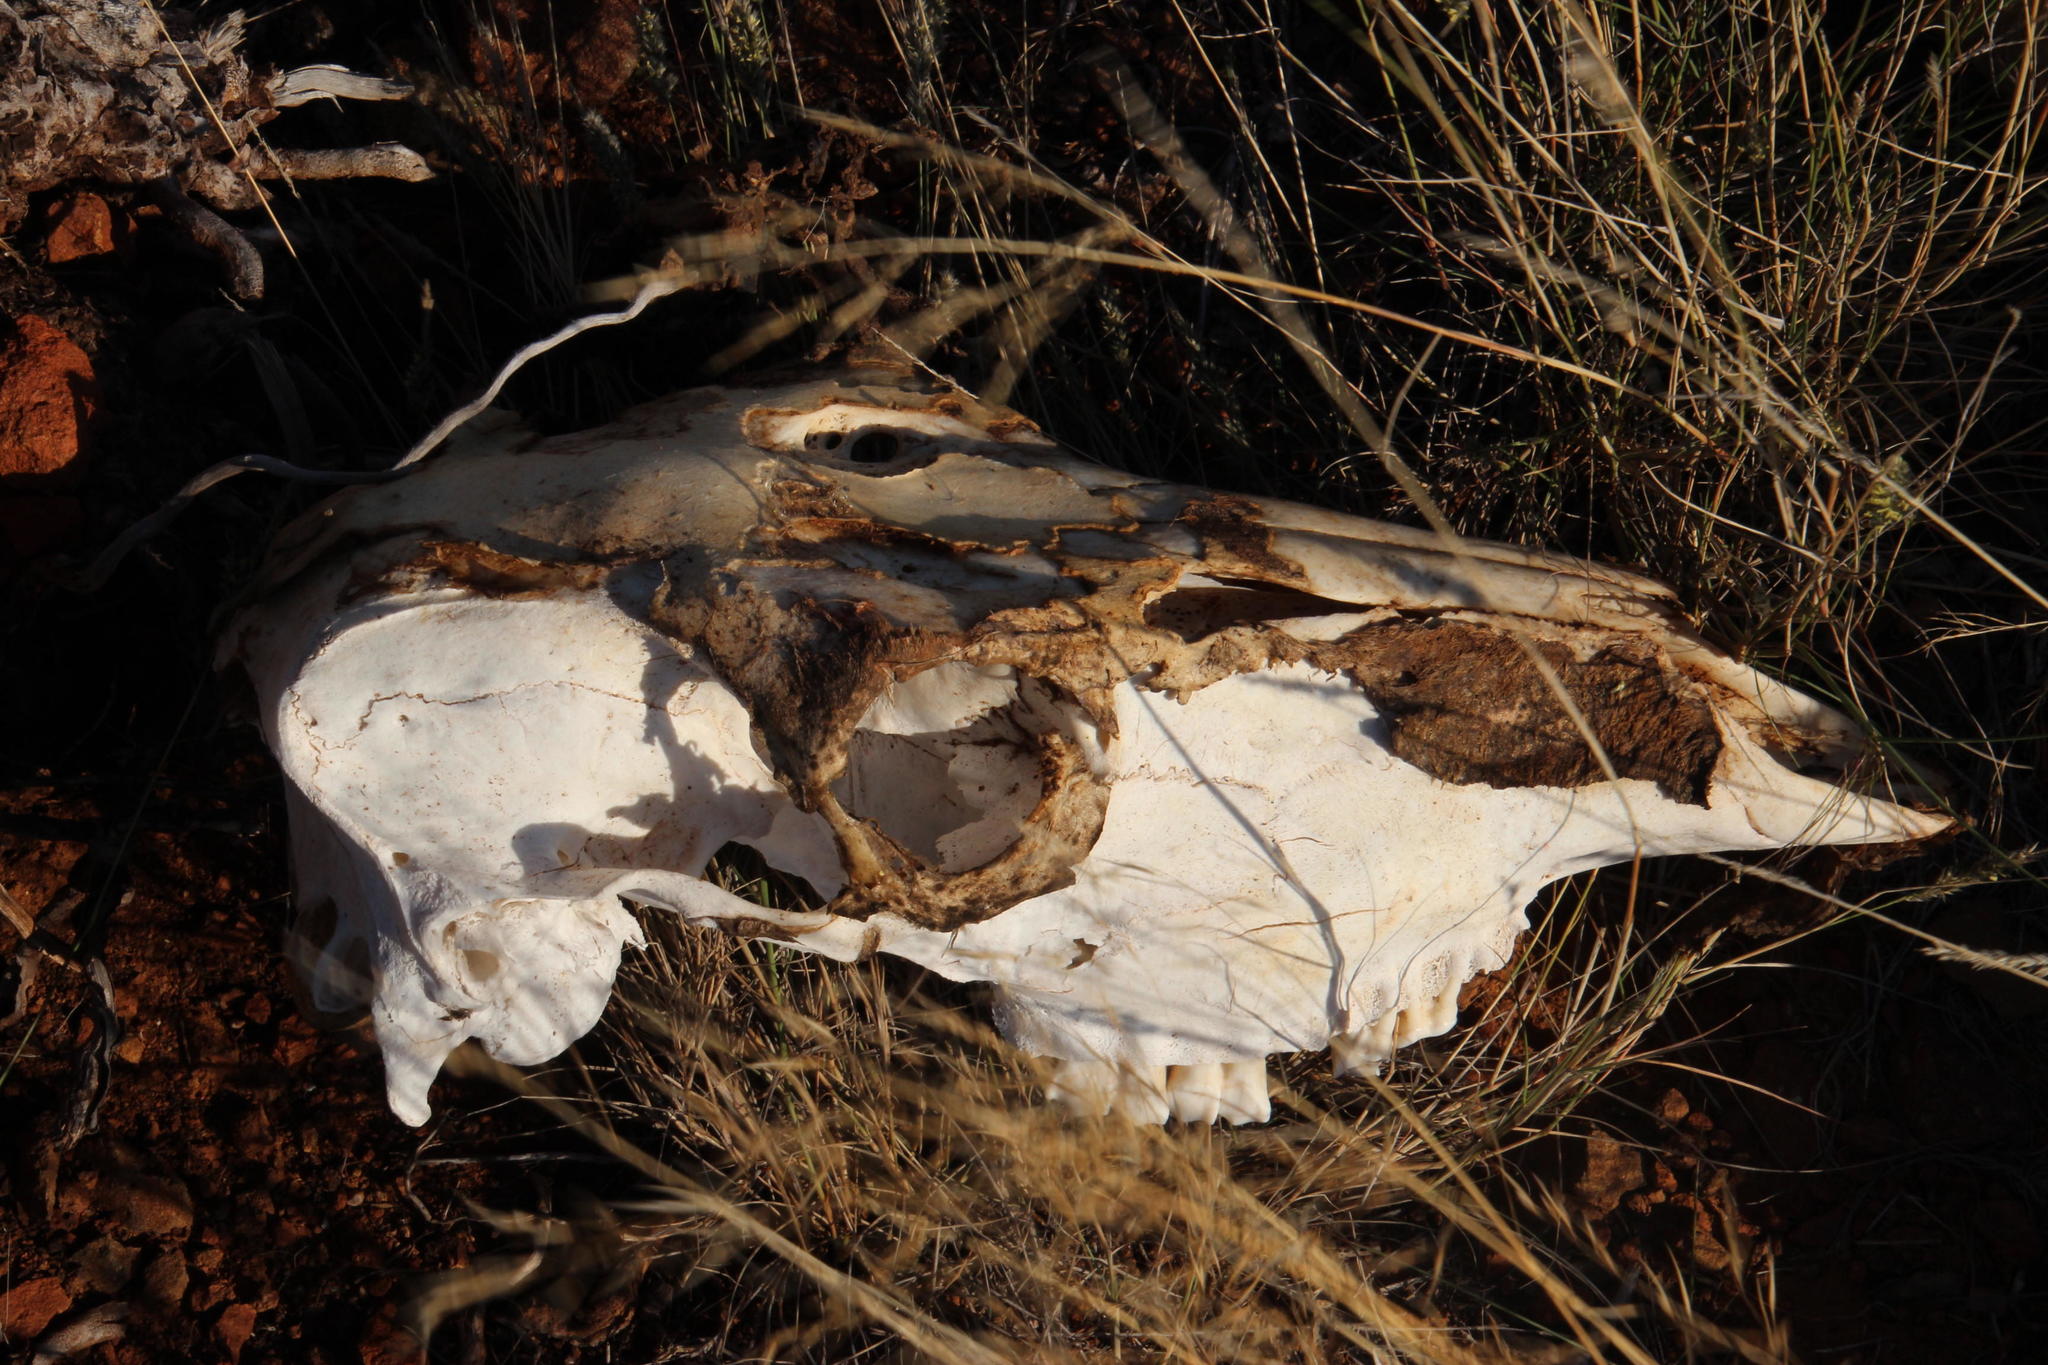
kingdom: Animalia
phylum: Chordata
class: Mammalia
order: Artiodactyla
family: Bovidae
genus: Tragelaphus
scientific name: Tragelaphus strepsiceros
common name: Greater kudu
